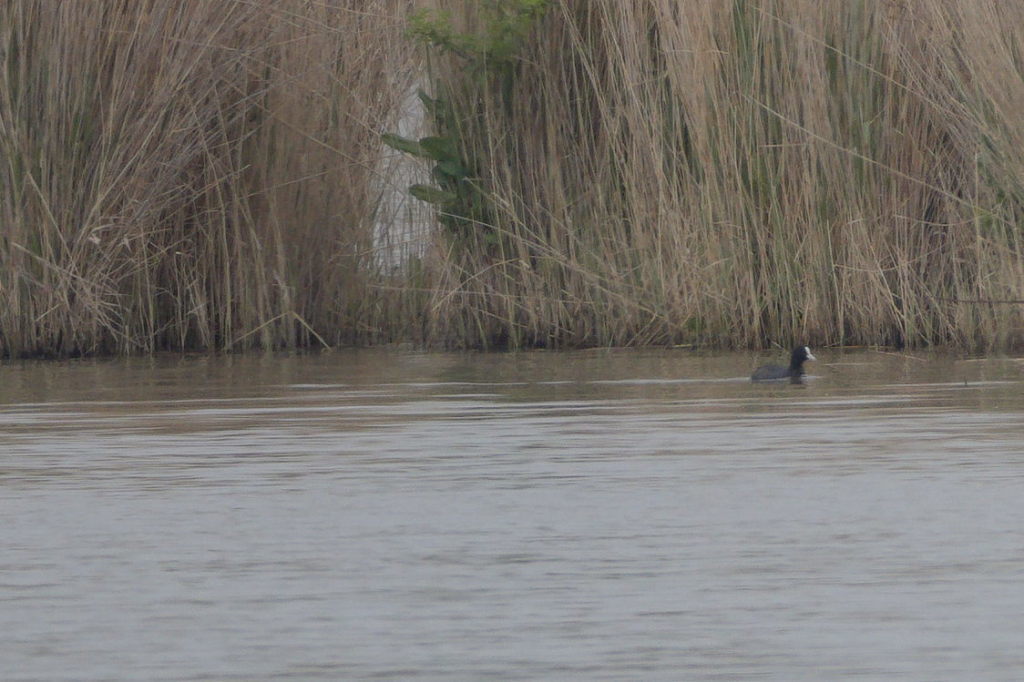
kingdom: Animalia
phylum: Chordata
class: Aves
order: Gruiformes
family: Rallidae
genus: Fulica
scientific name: Fulica atra
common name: Eurasian coot
